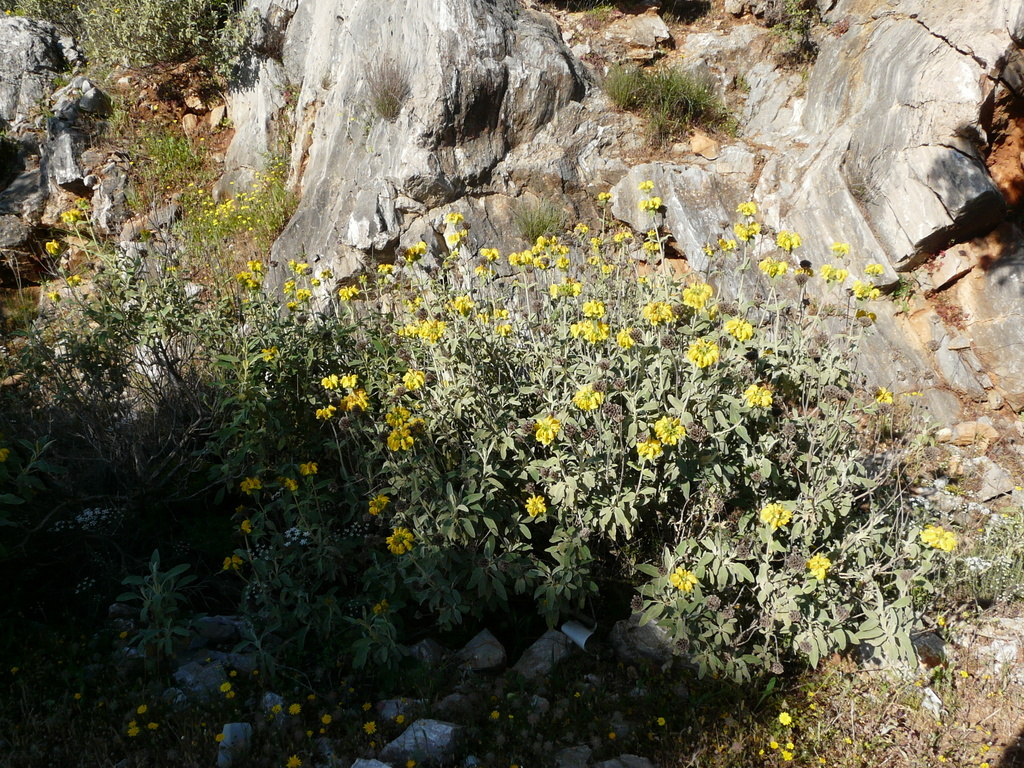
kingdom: Plantae
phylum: Tracheophyta
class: Magnoliopsida
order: Lamiales
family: Lamiaceae
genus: Phlomis
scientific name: Phlomis fruticosa
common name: Jerusalem sage
